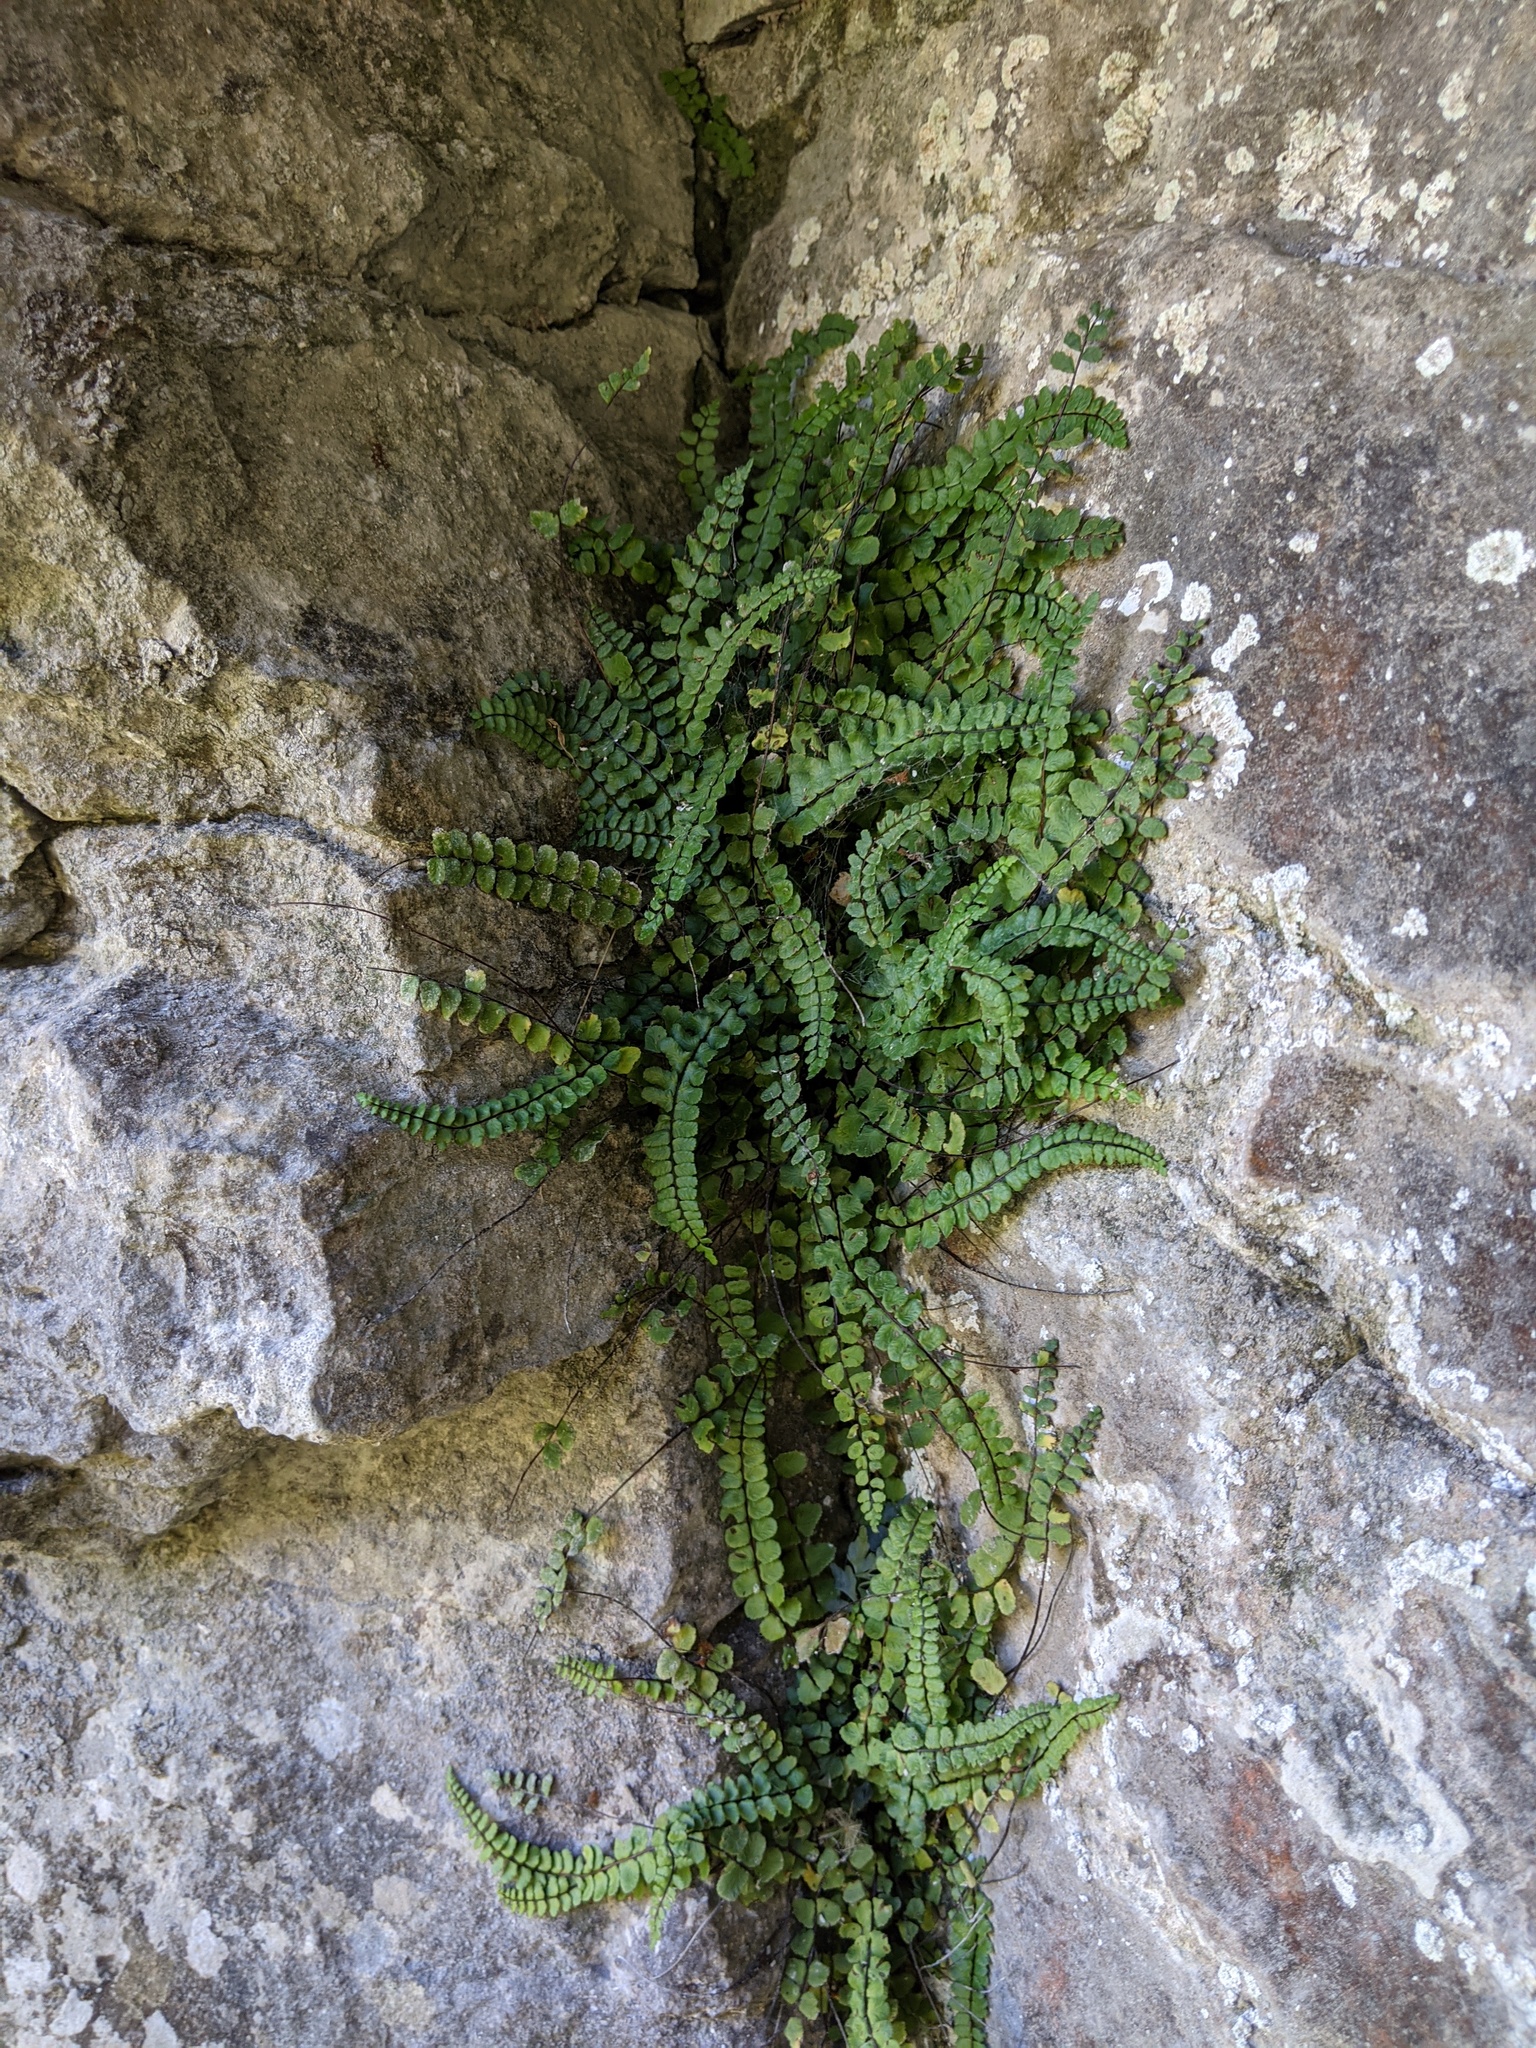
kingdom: Plantae
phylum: Tracheophyta
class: Polypodiopsida
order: Polypodiales
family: Aspleniaceae
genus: Asplenium
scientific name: Asplenium trichomanes
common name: Maidenhair spleenwort
